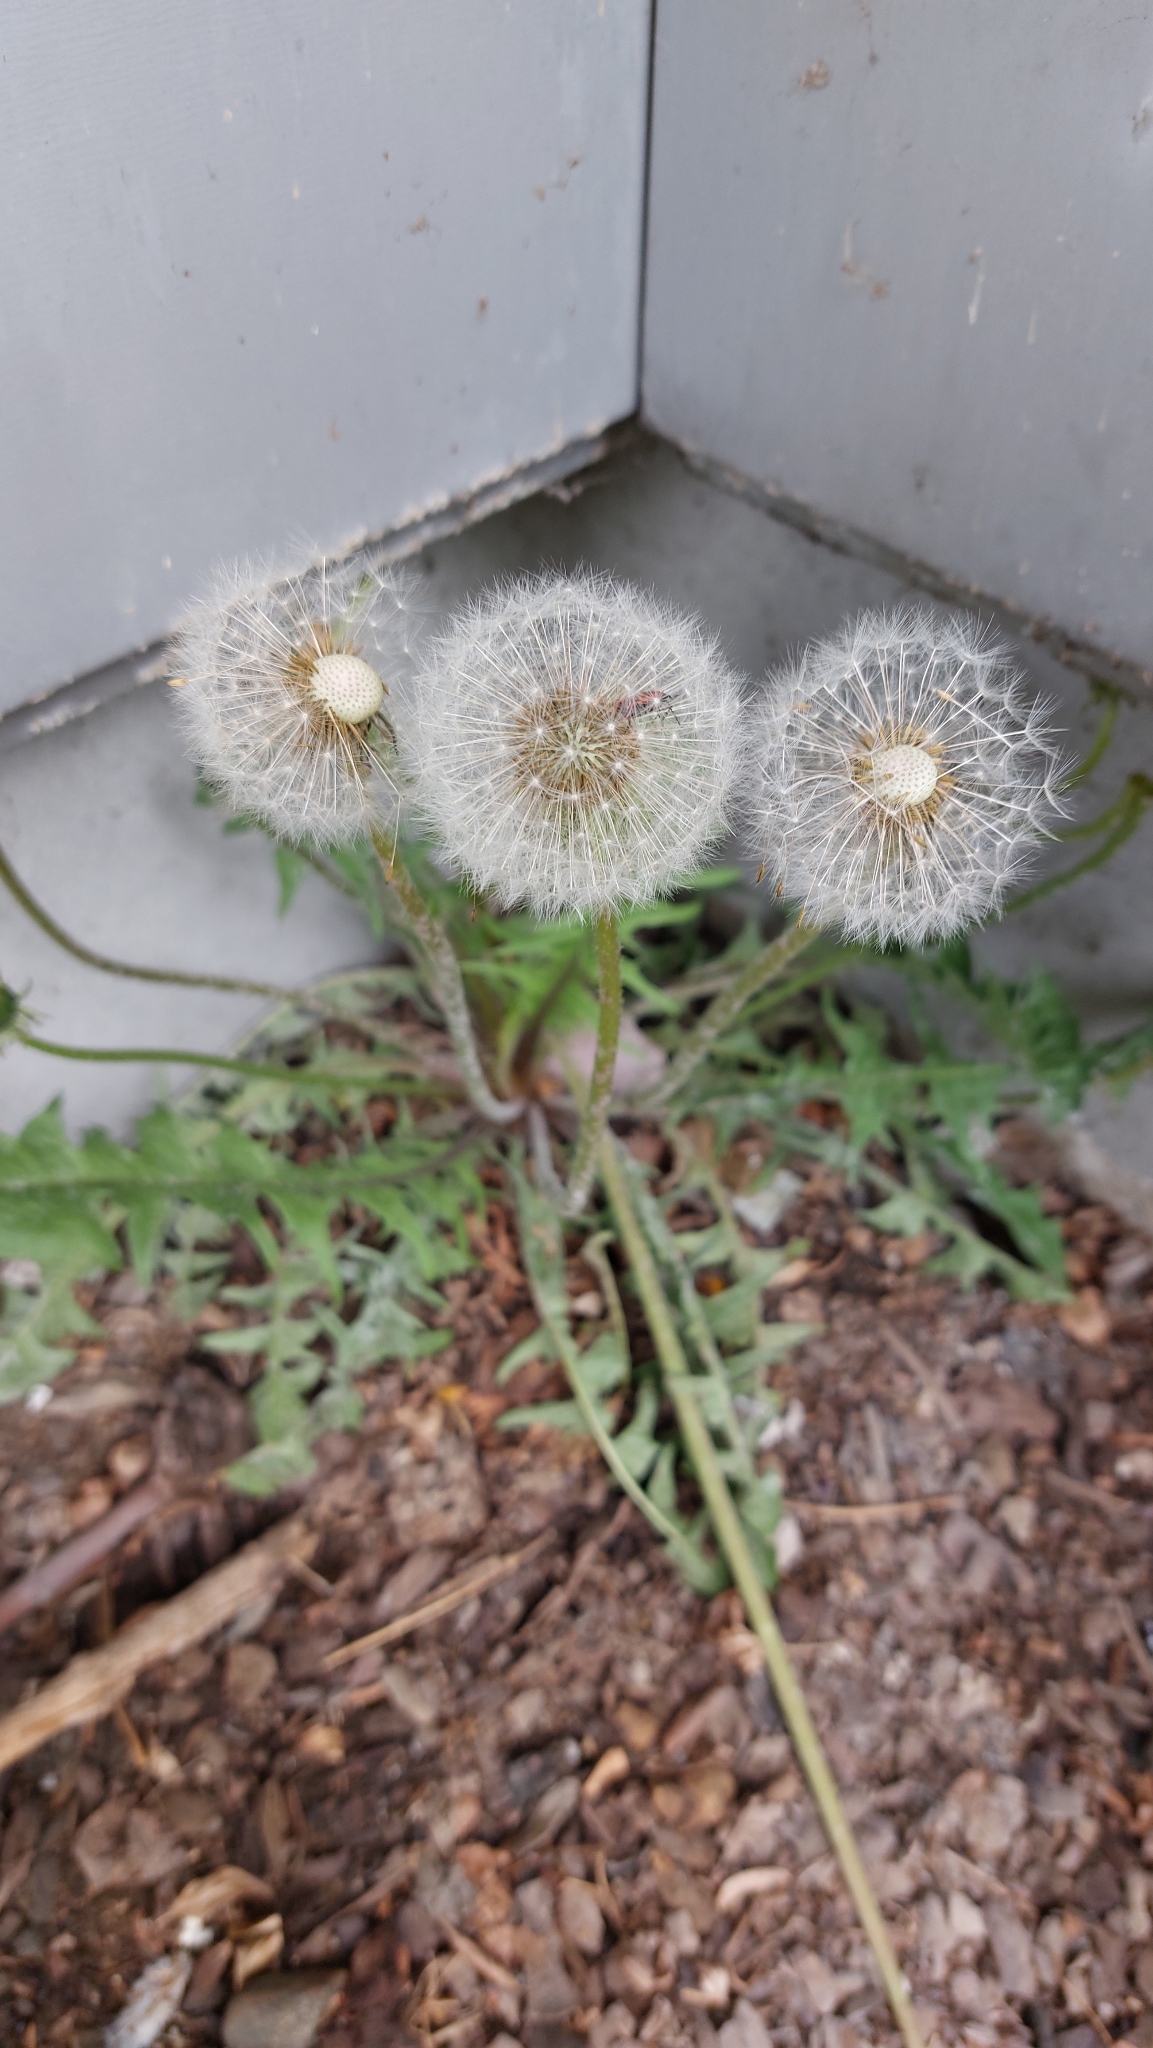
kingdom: Plantae
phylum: Tracheophyta
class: Magnoliopsida
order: Asterales
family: Asteraceae
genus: Taraxacum
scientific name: Taraxacum
